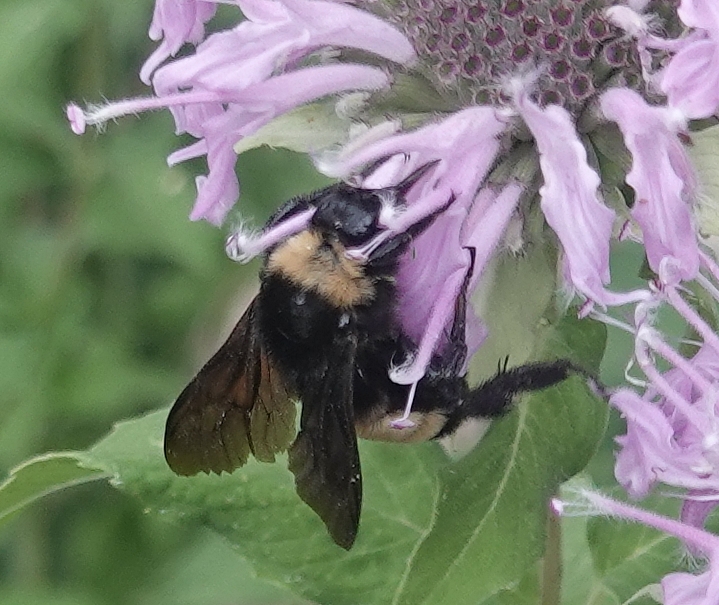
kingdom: Animalia
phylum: Arthropoda
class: Insecta
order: Hymenoptera
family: Apidae
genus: Bombus
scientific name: Bombus pensylvanicus
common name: Bumble bee
